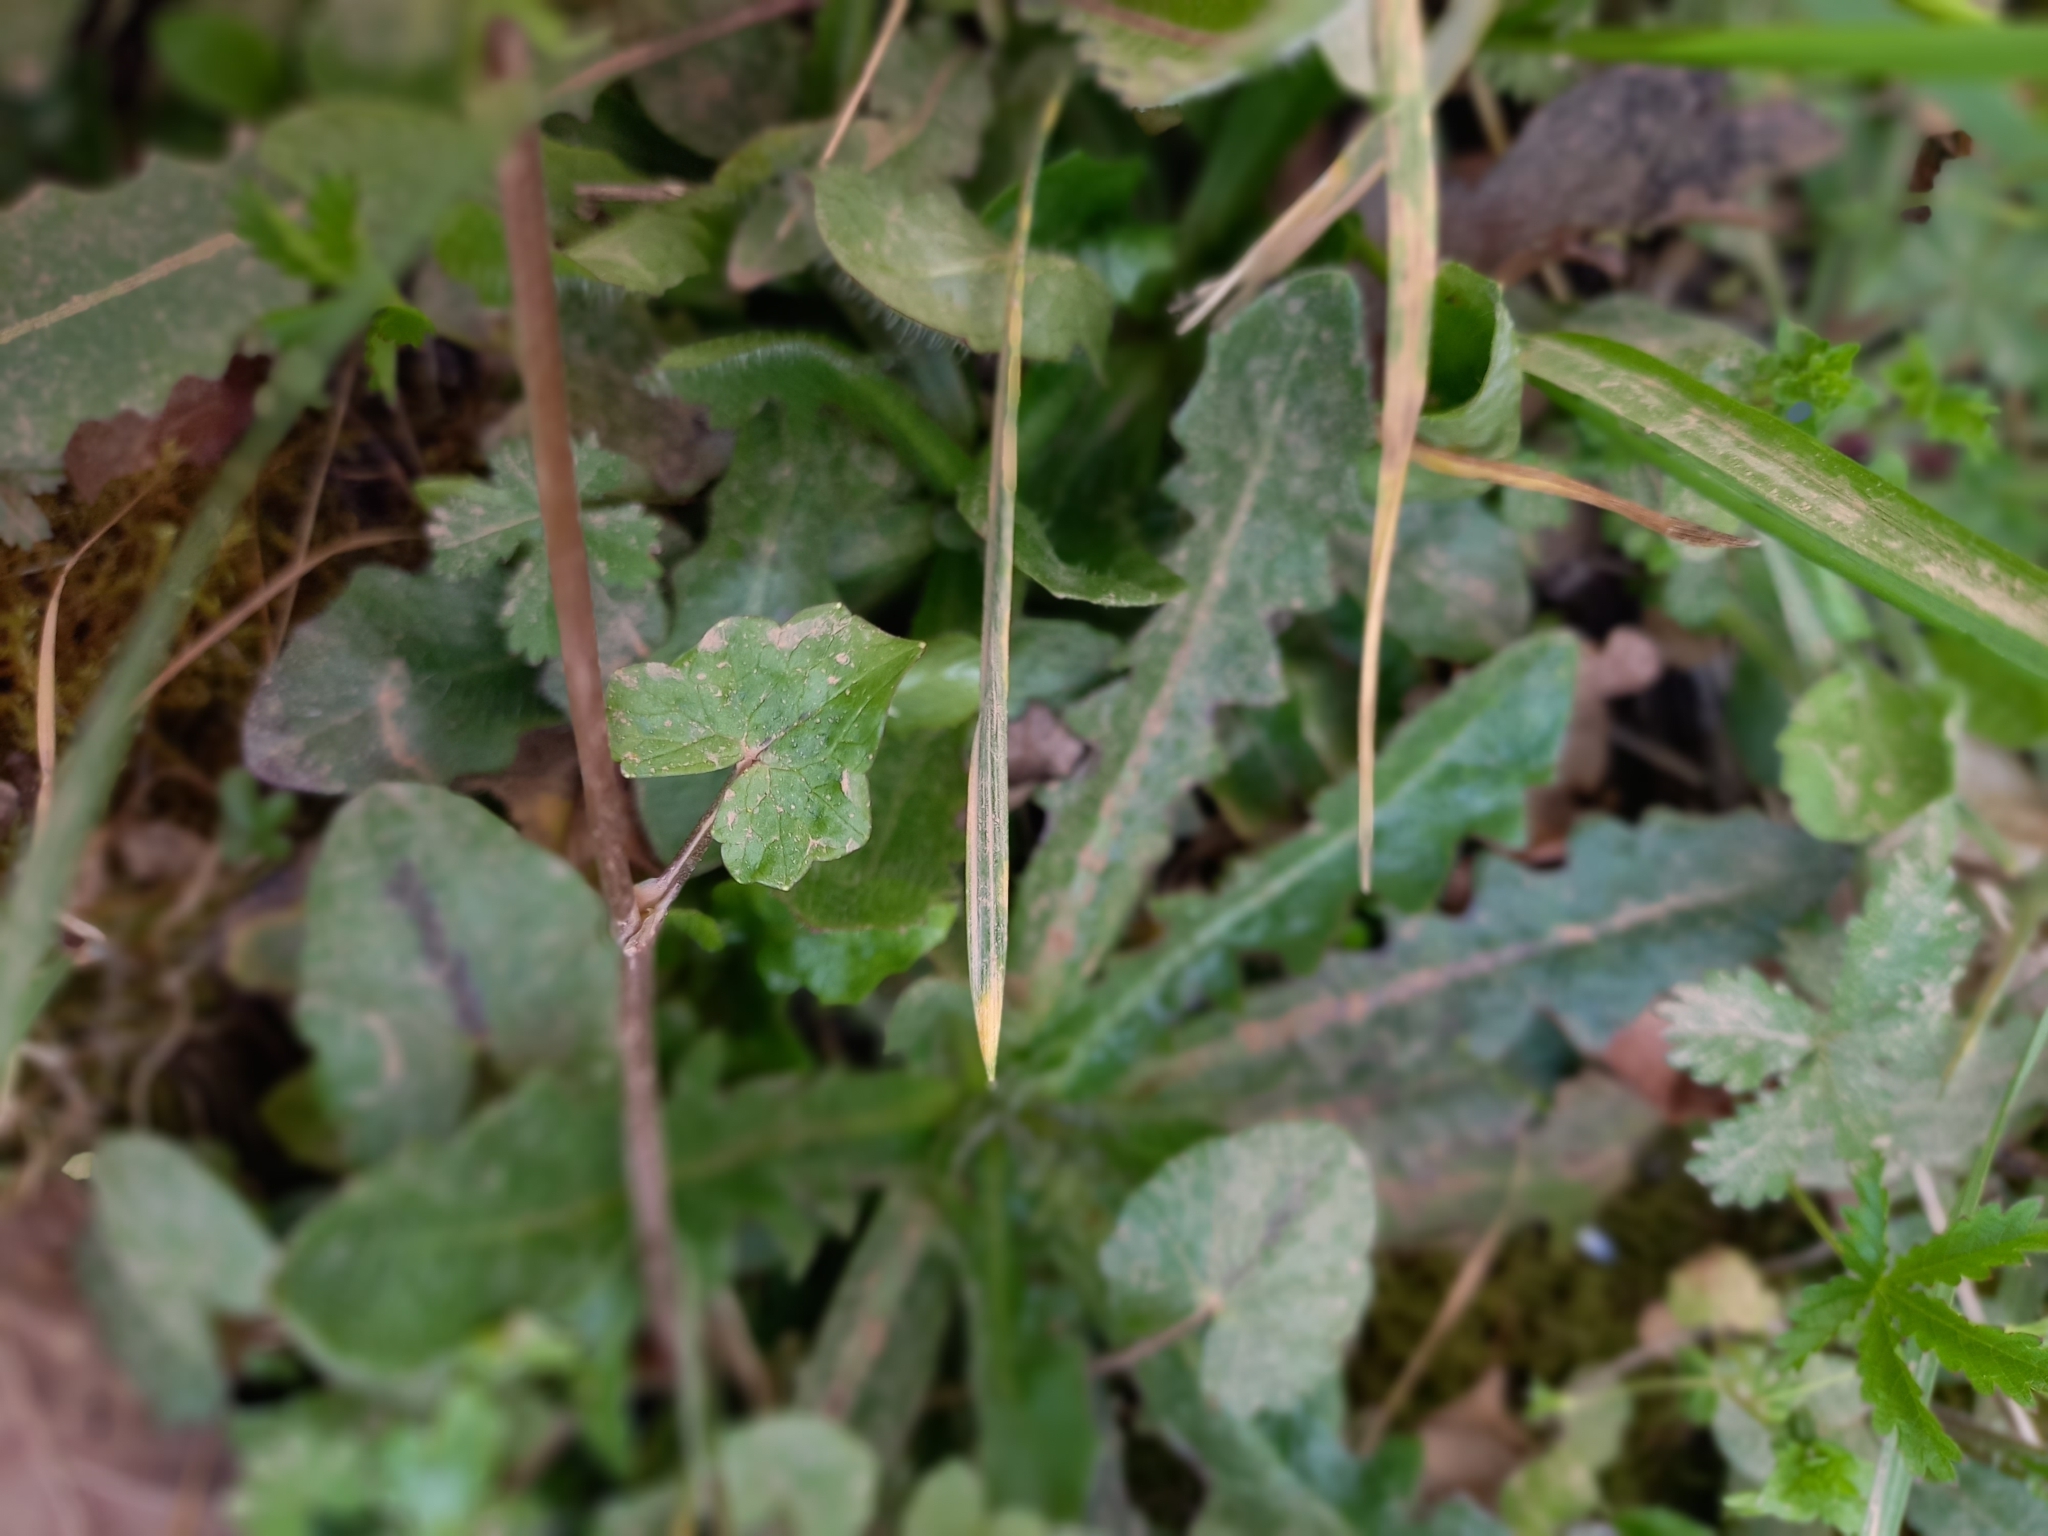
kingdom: Plantae
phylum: Tracheophyta
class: Magnoliopsida
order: Ranunculales
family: Ranunculaceae
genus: Ficaria
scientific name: Ficaria verna
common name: Lesser celandine
